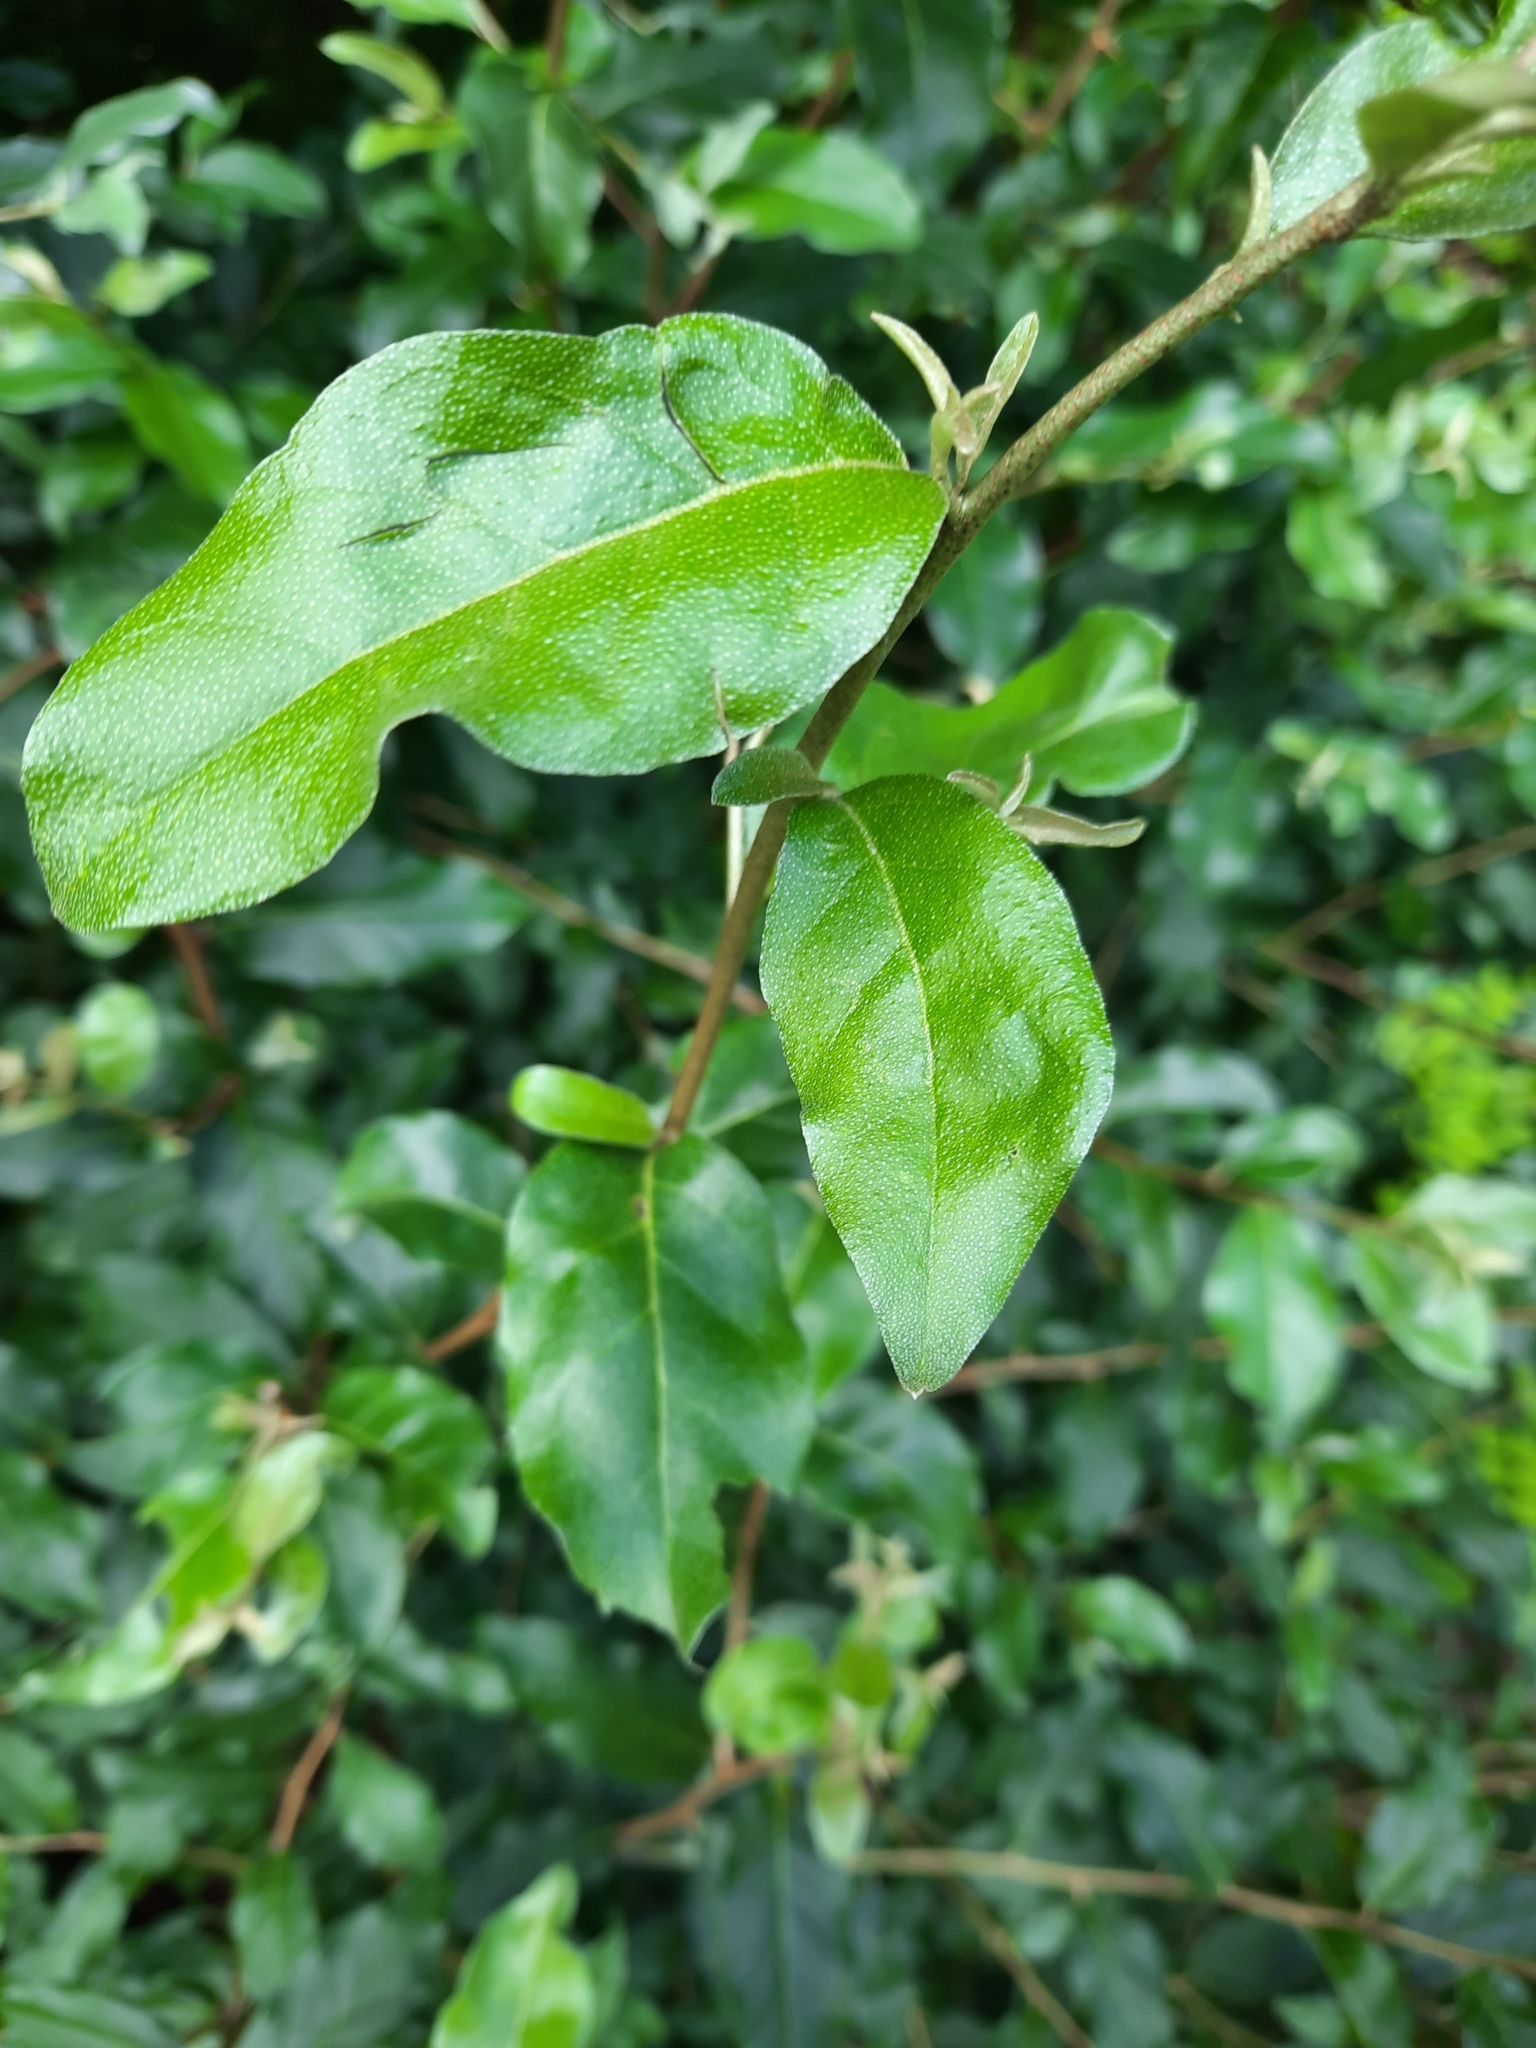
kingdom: Plantae
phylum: Tracheophyta
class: Magnoliopsida
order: Rosales
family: Elaeagnaceae
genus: Elaeagnus
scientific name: Elaeagnus umbellata
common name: Autumn olive
